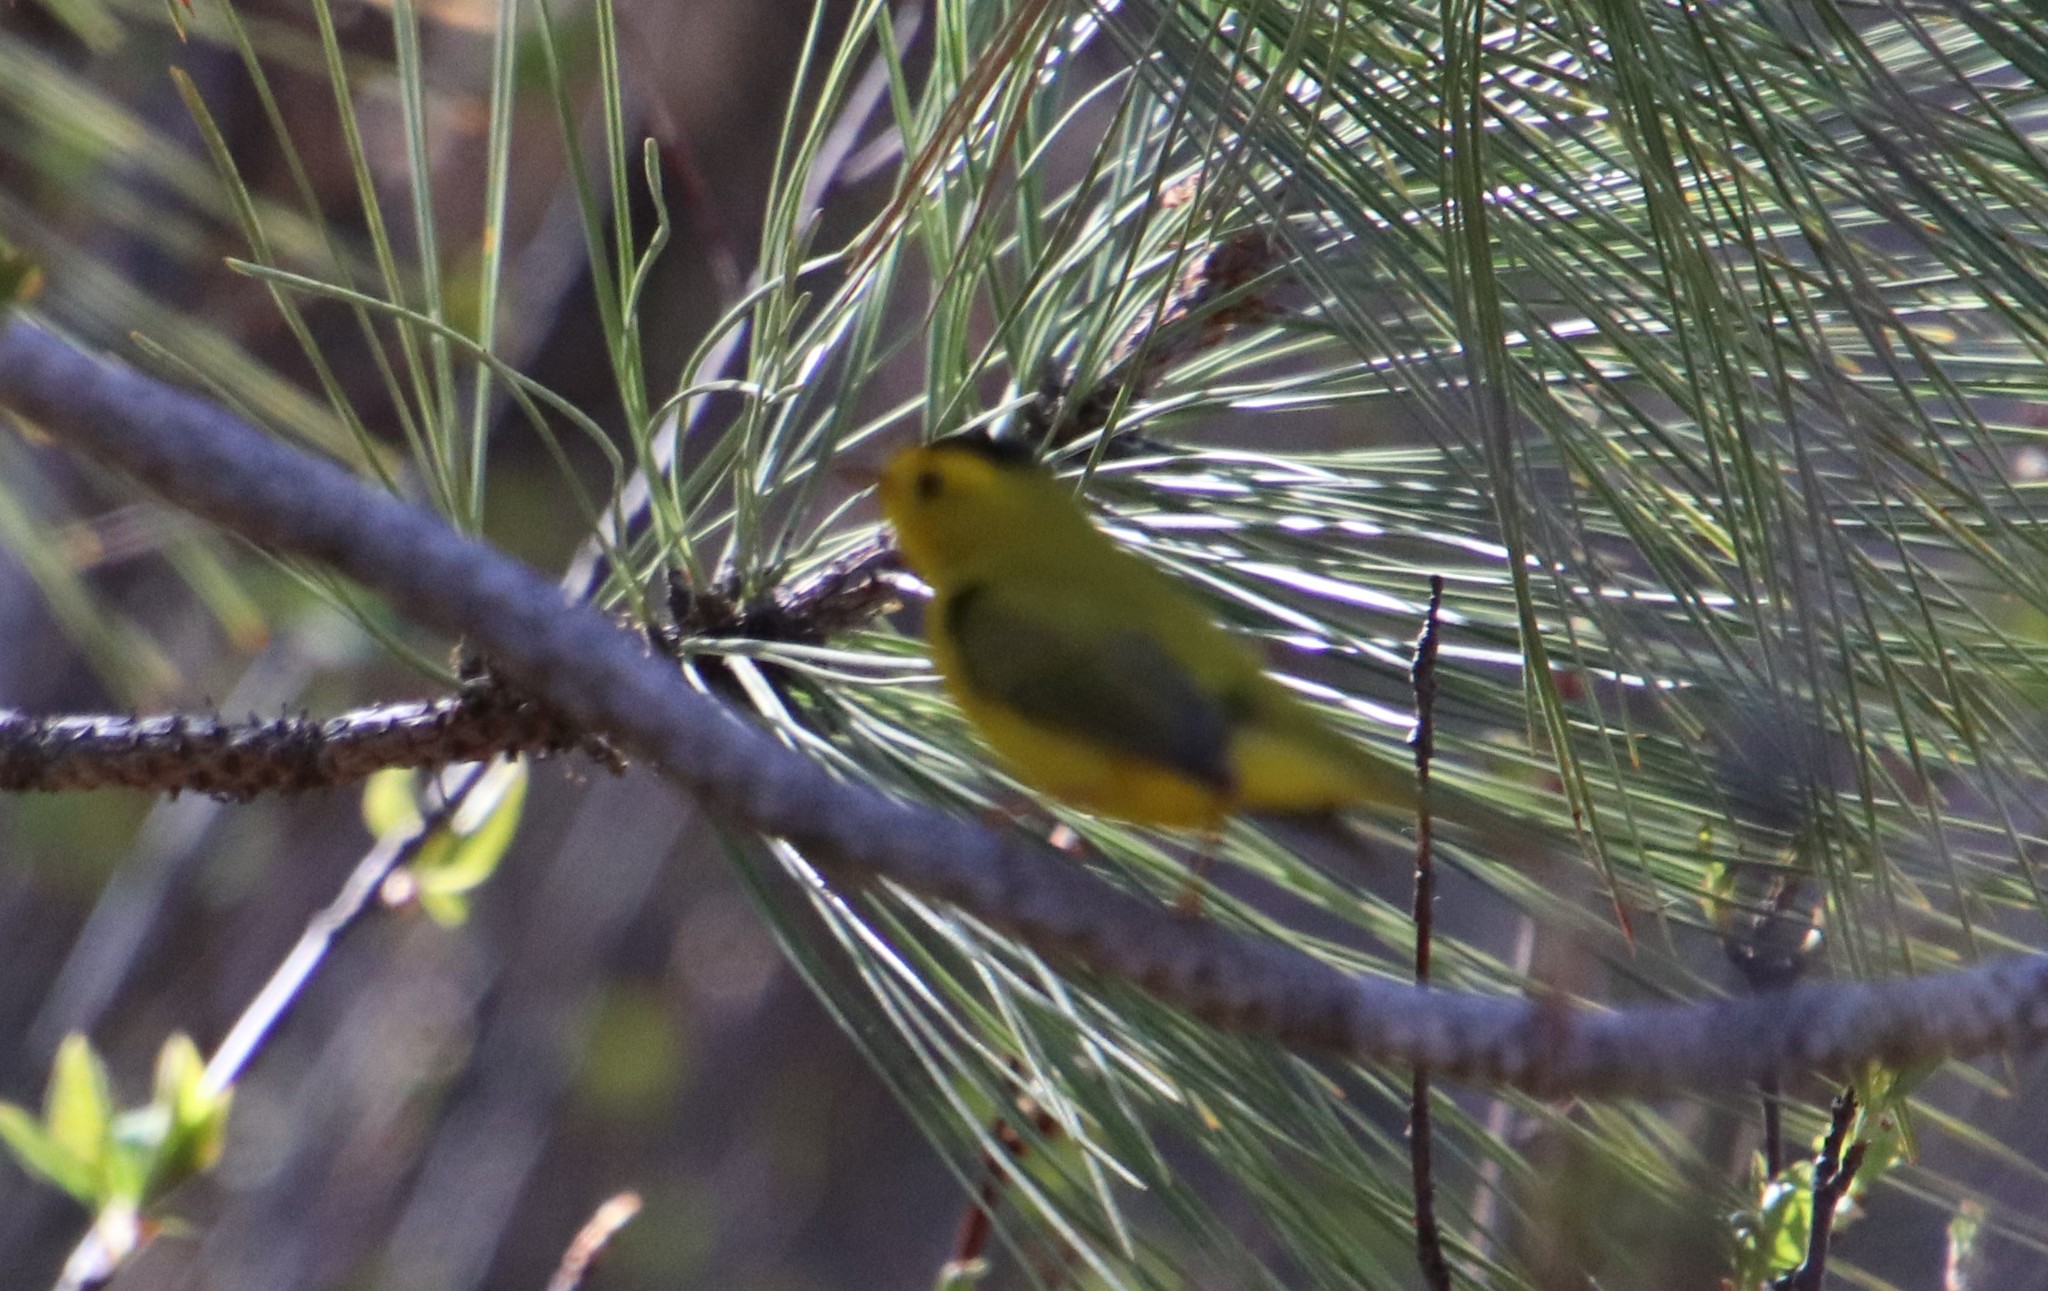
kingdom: Animalia
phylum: Chordata
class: Aves
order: Passeriformes
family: Parulidae
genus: Cardellina
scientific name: Cardellina pusilla
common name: Wilson's warbler
